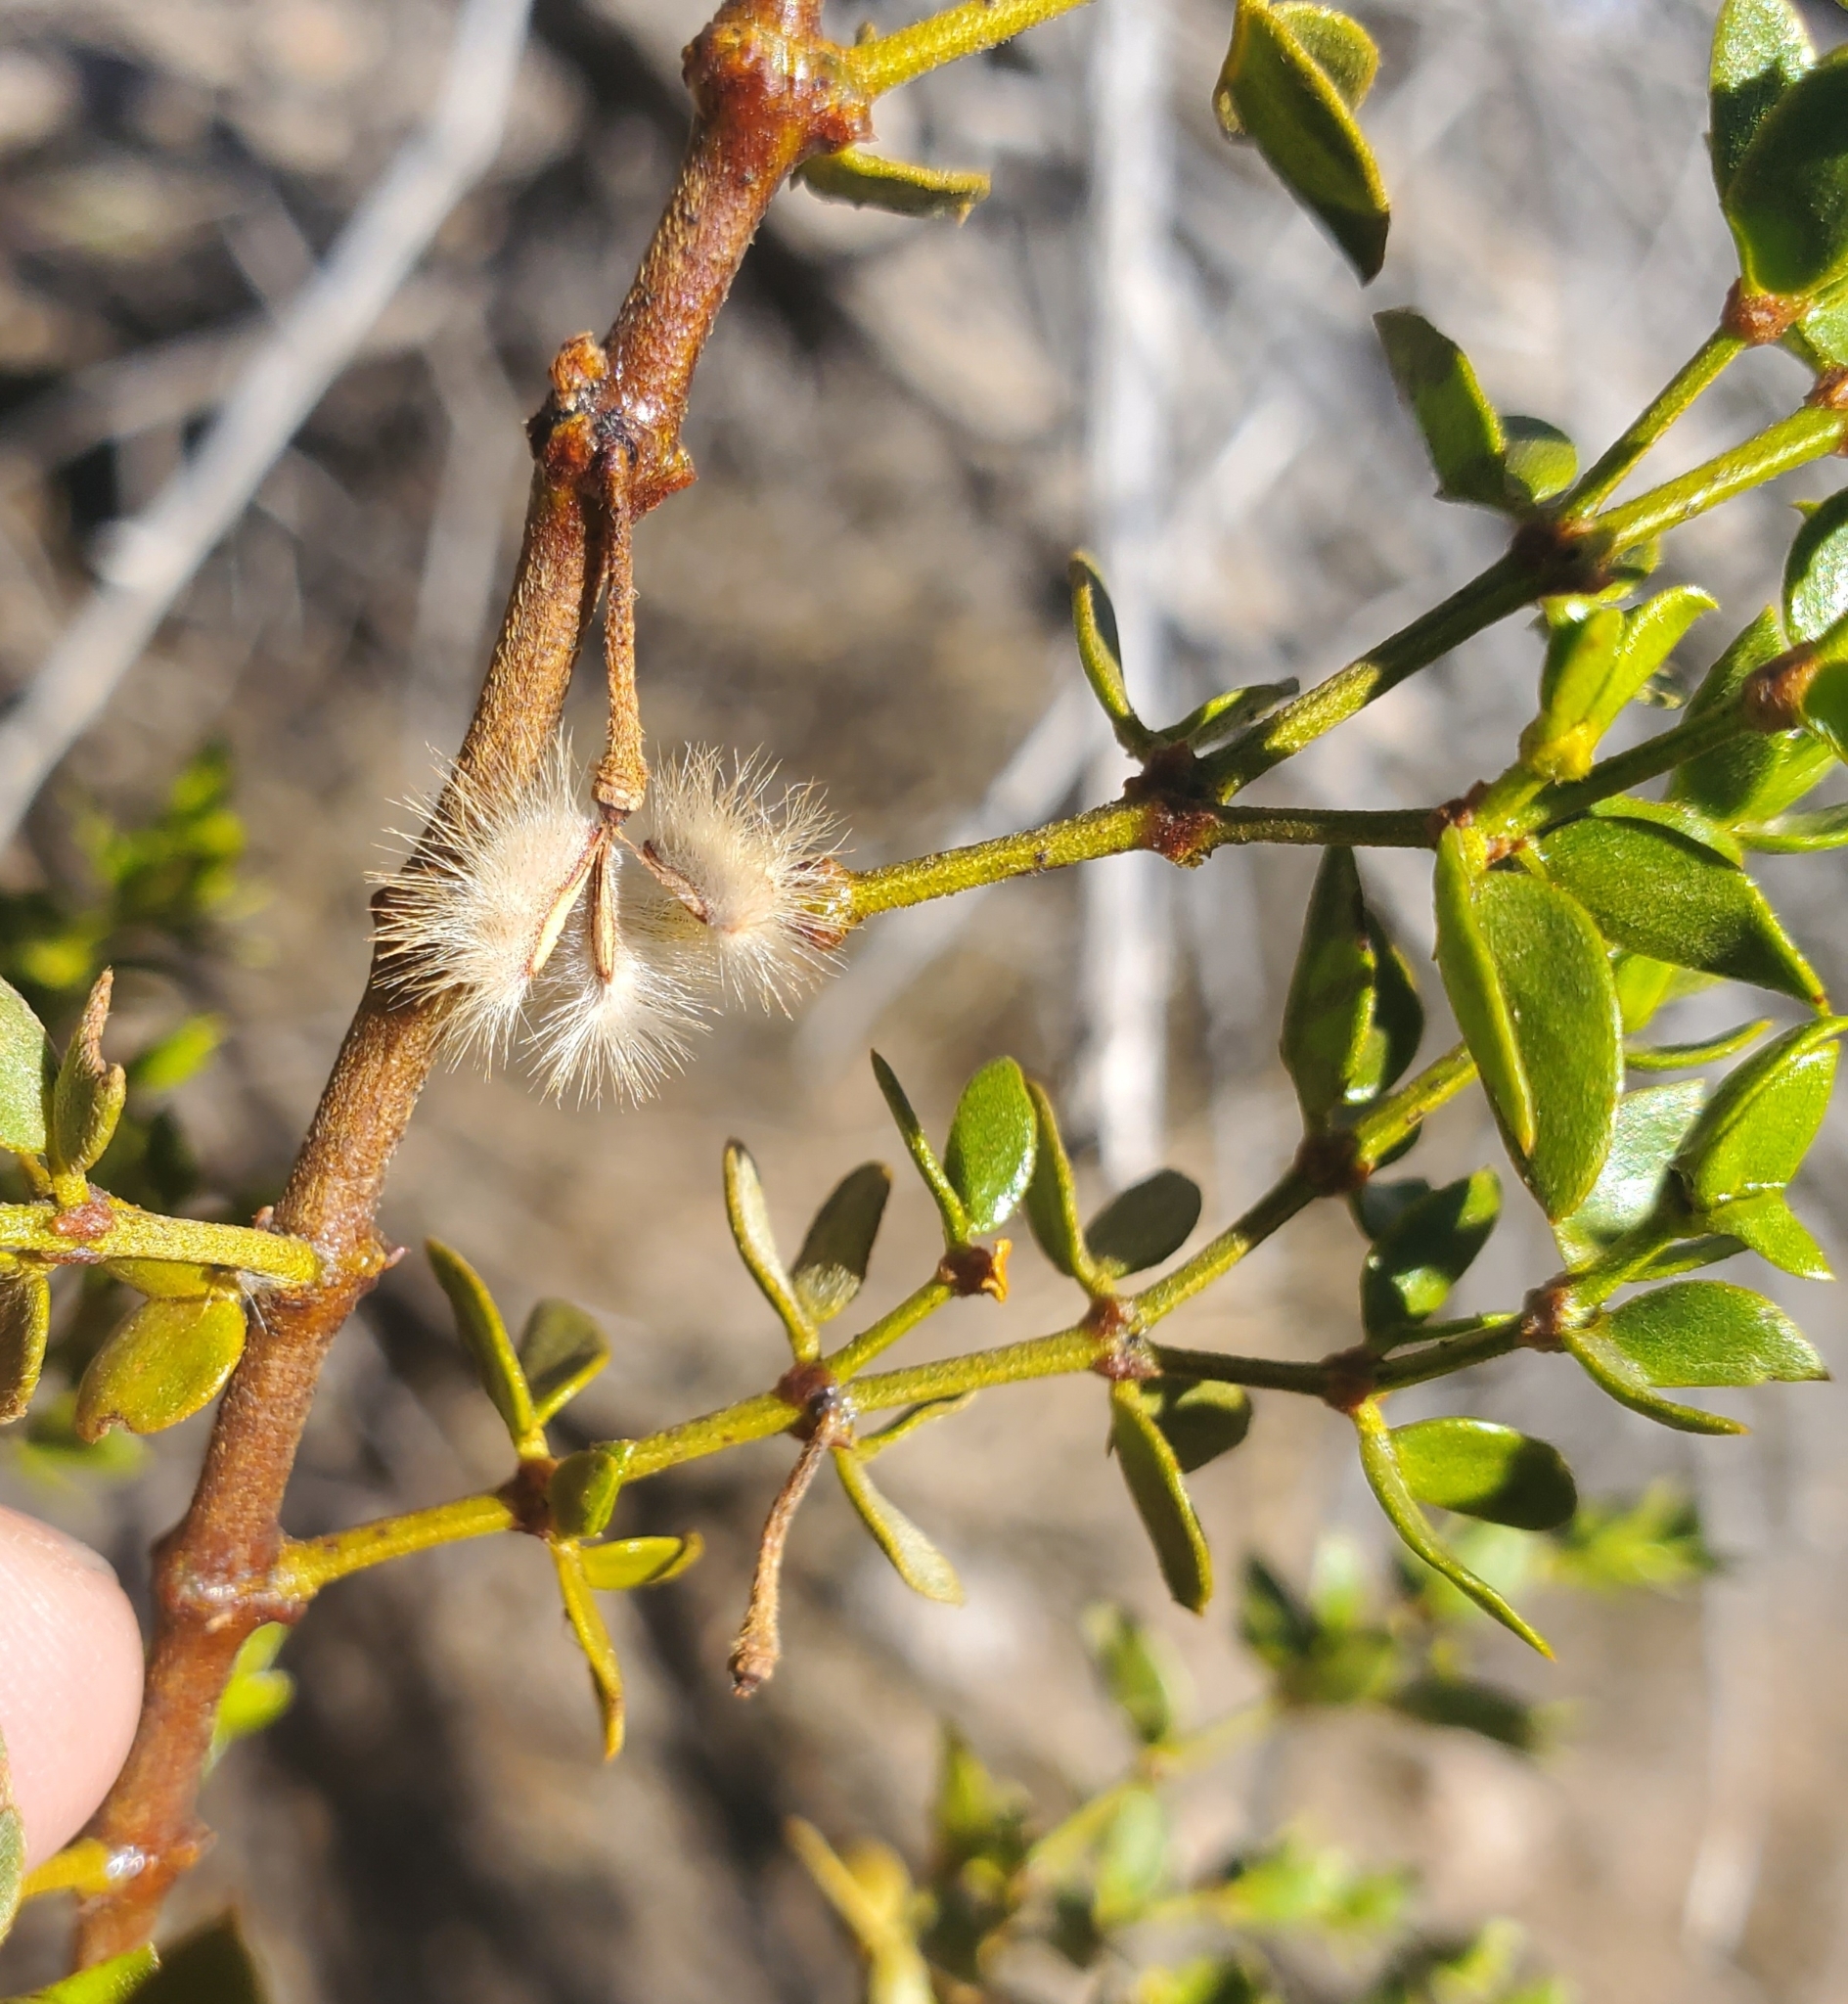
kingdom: Plantae
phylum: Tracheophyta
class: Magnoliopsida
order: Zygophyllales
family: Zygophyllaceae
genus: Larrea
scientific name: Larrea tridentata
